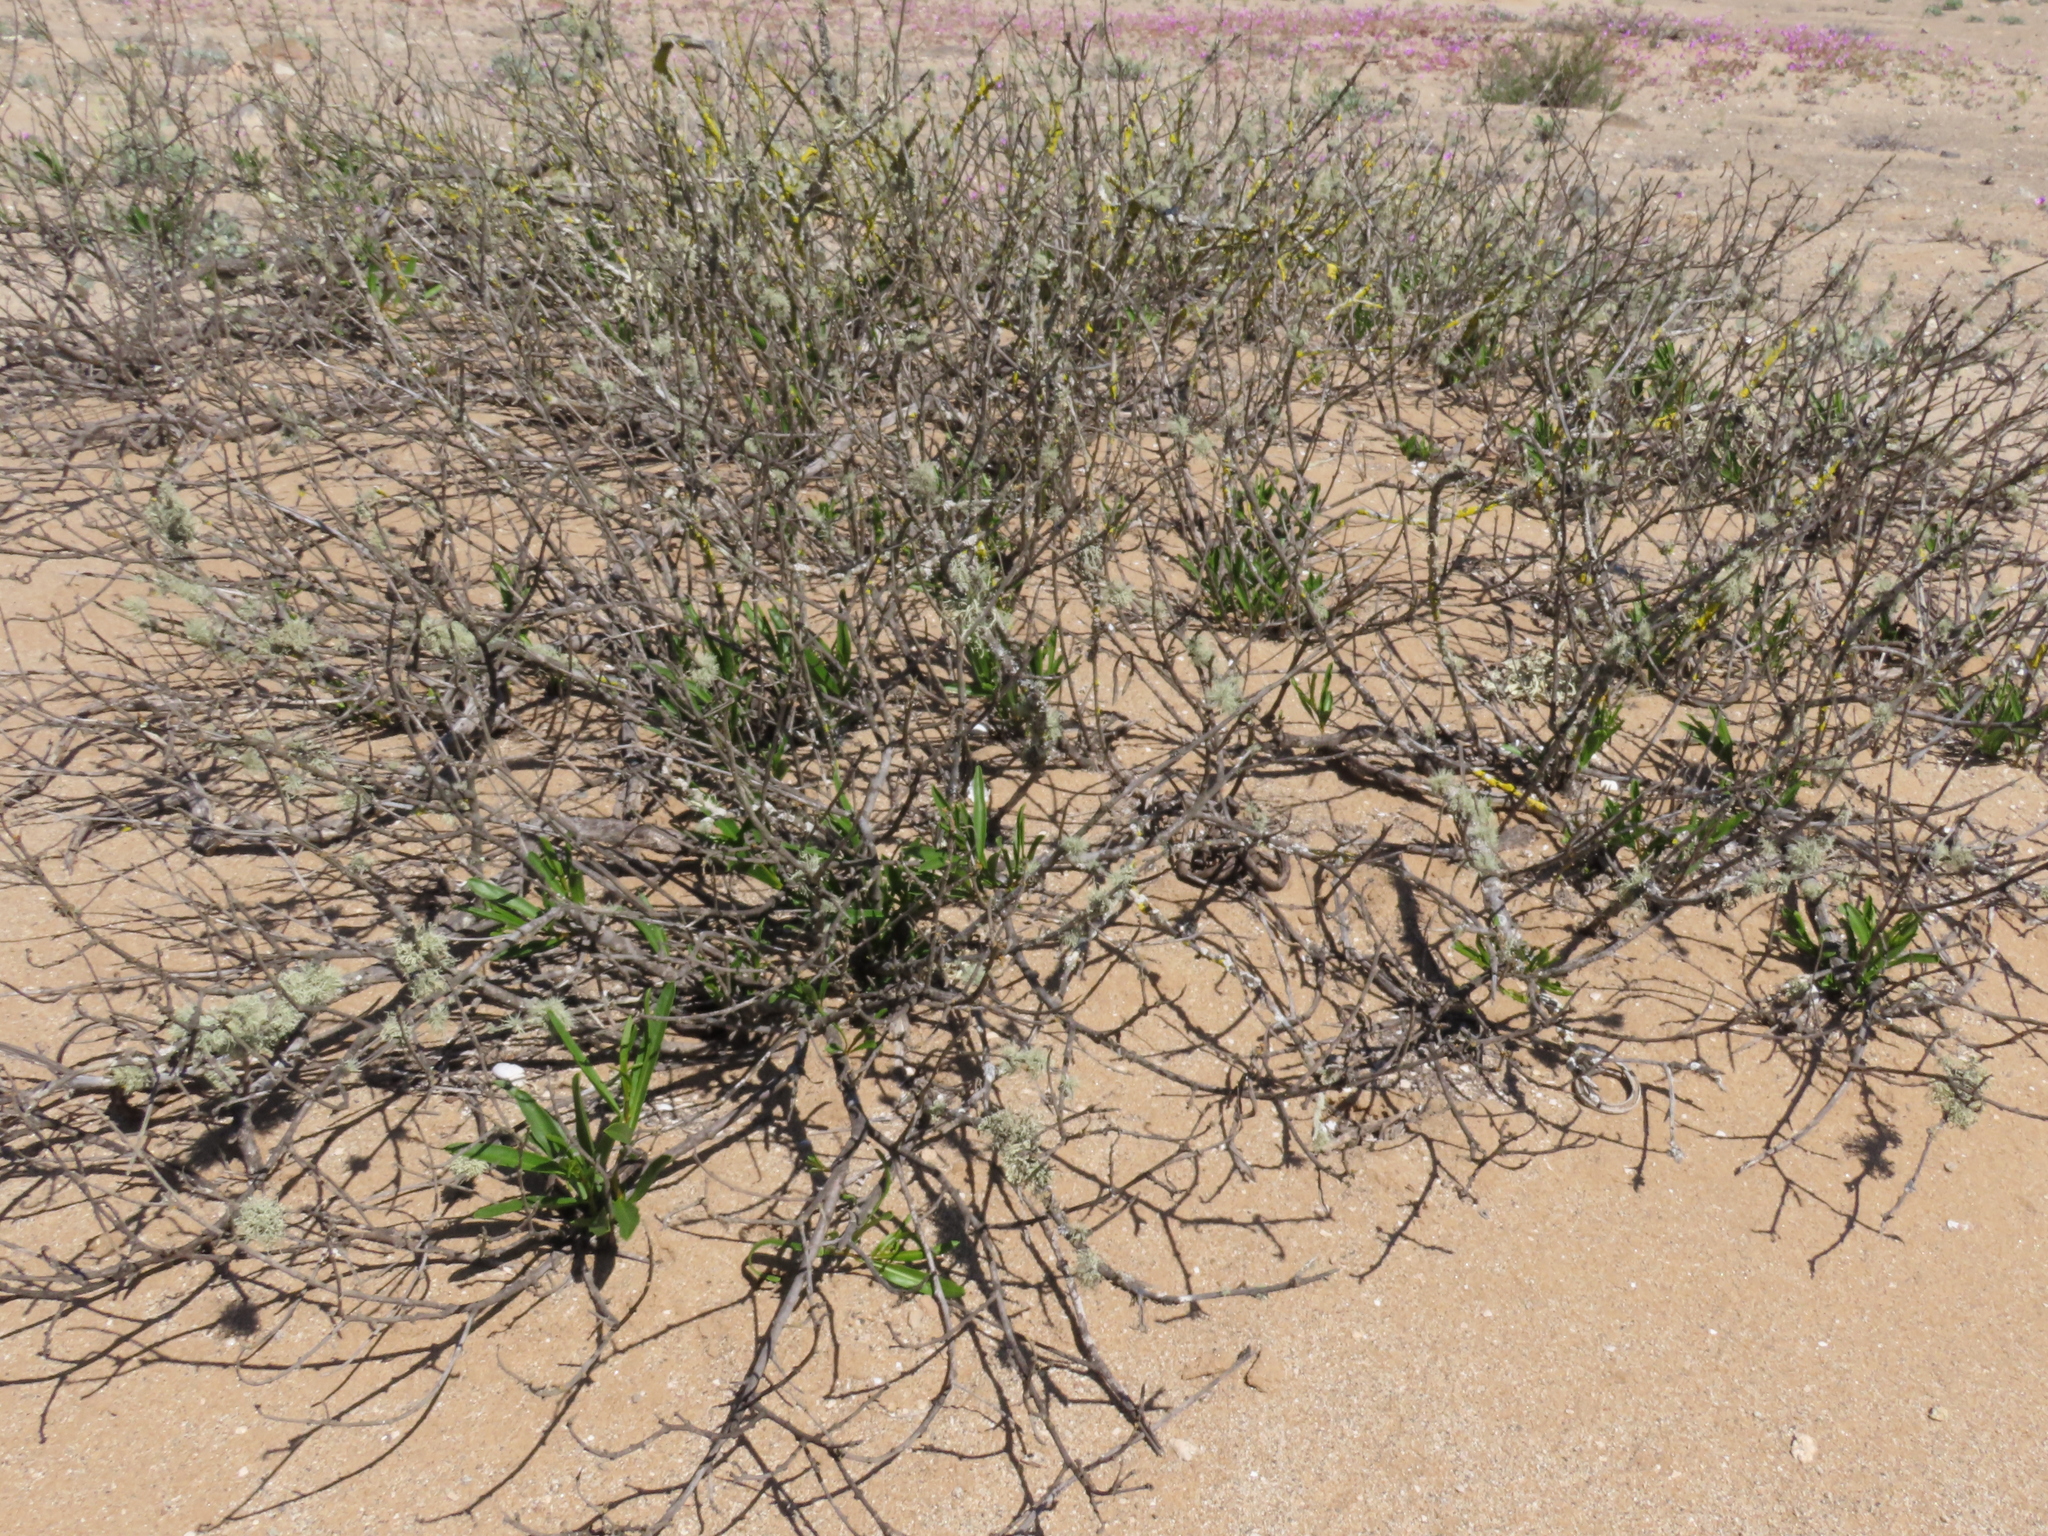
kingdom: Plantae
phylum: Tracheophyta
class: Magnoliopsida
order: Gentianales
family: Apocynaceae
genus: Skytanthus
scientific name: Skytanthus acutus
